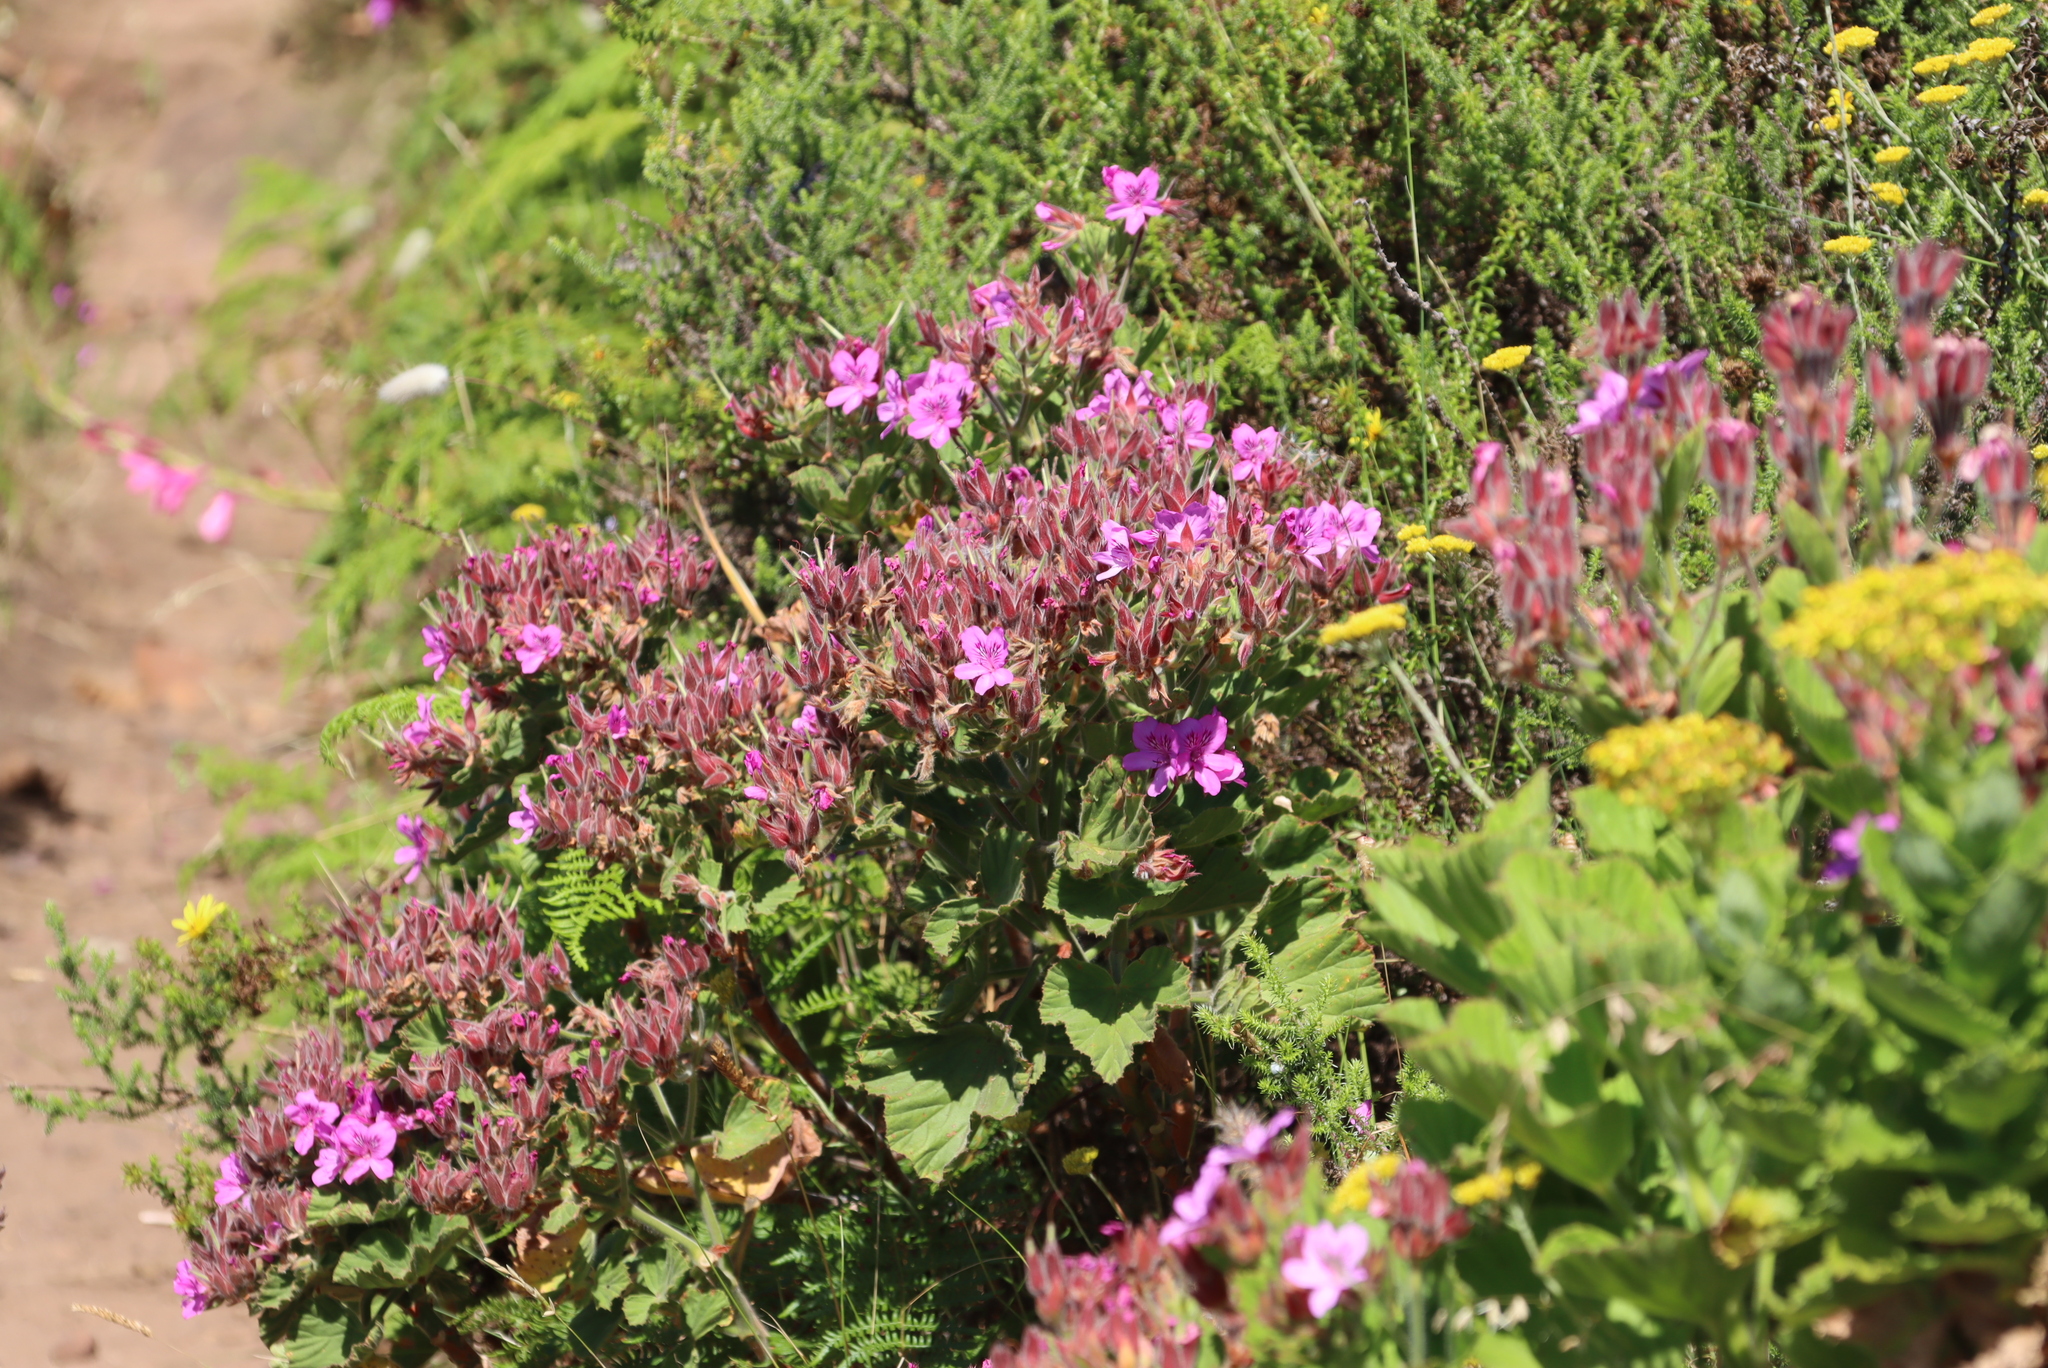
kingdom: Plantae
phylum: Tracheophyta
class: Magnoliopsida
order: Geraniales
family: Geraniaceae
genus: Pelargonium
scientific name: Pelargonium cucullatum
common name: Tree pelargonium
